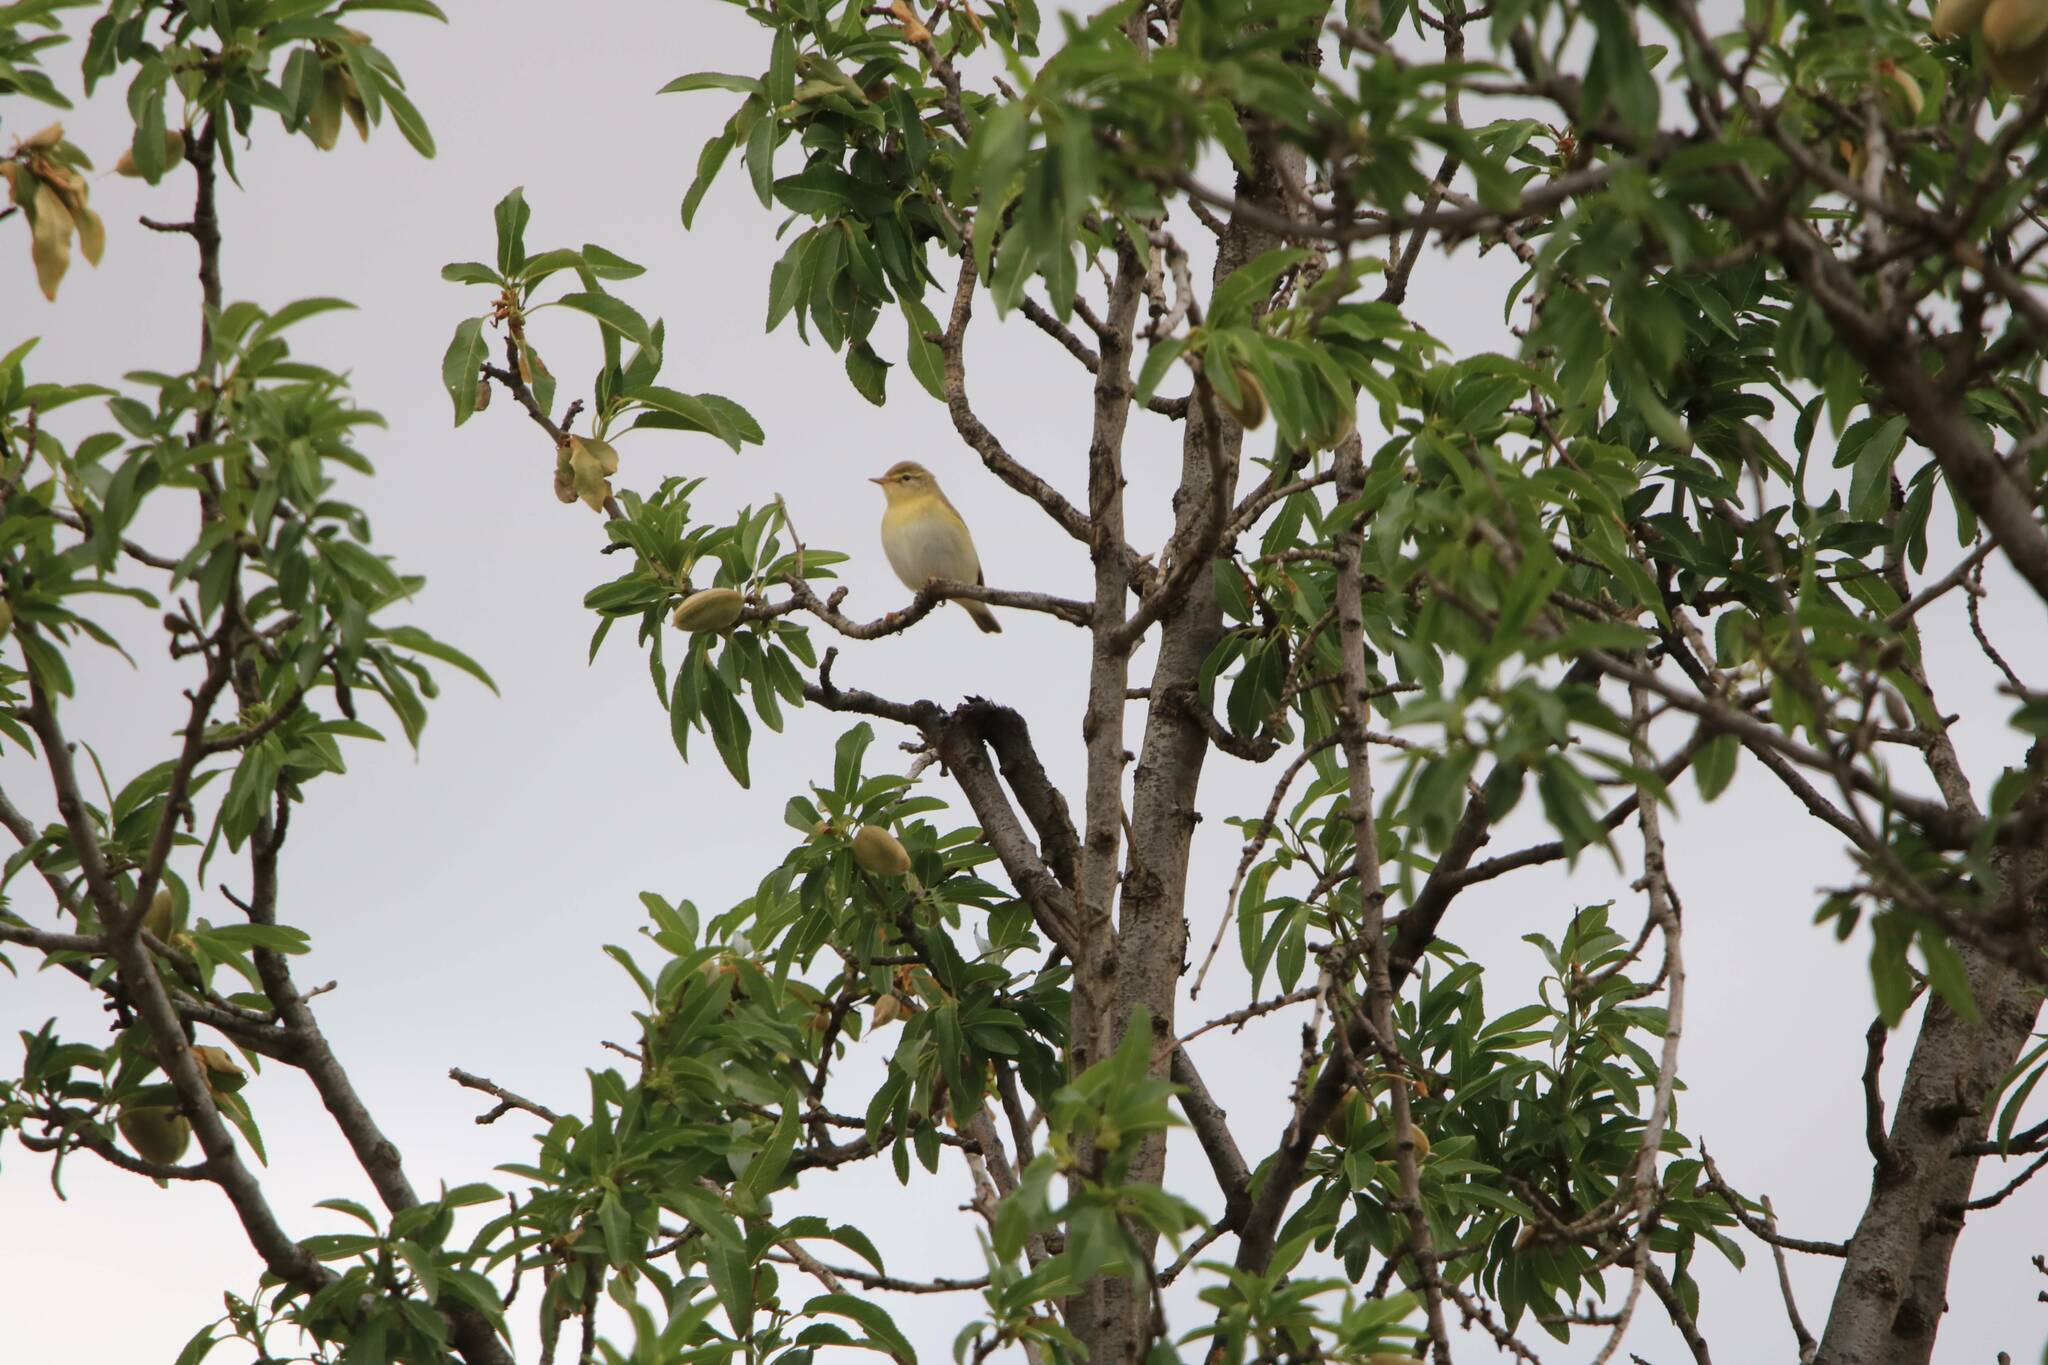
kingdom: Animalia
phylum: Chordata
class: Aves
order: Passeriformes
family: Phylloscopidae
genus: Phylloscopus
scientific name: Phylloscopus sibillatrix
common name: Wood warbler
